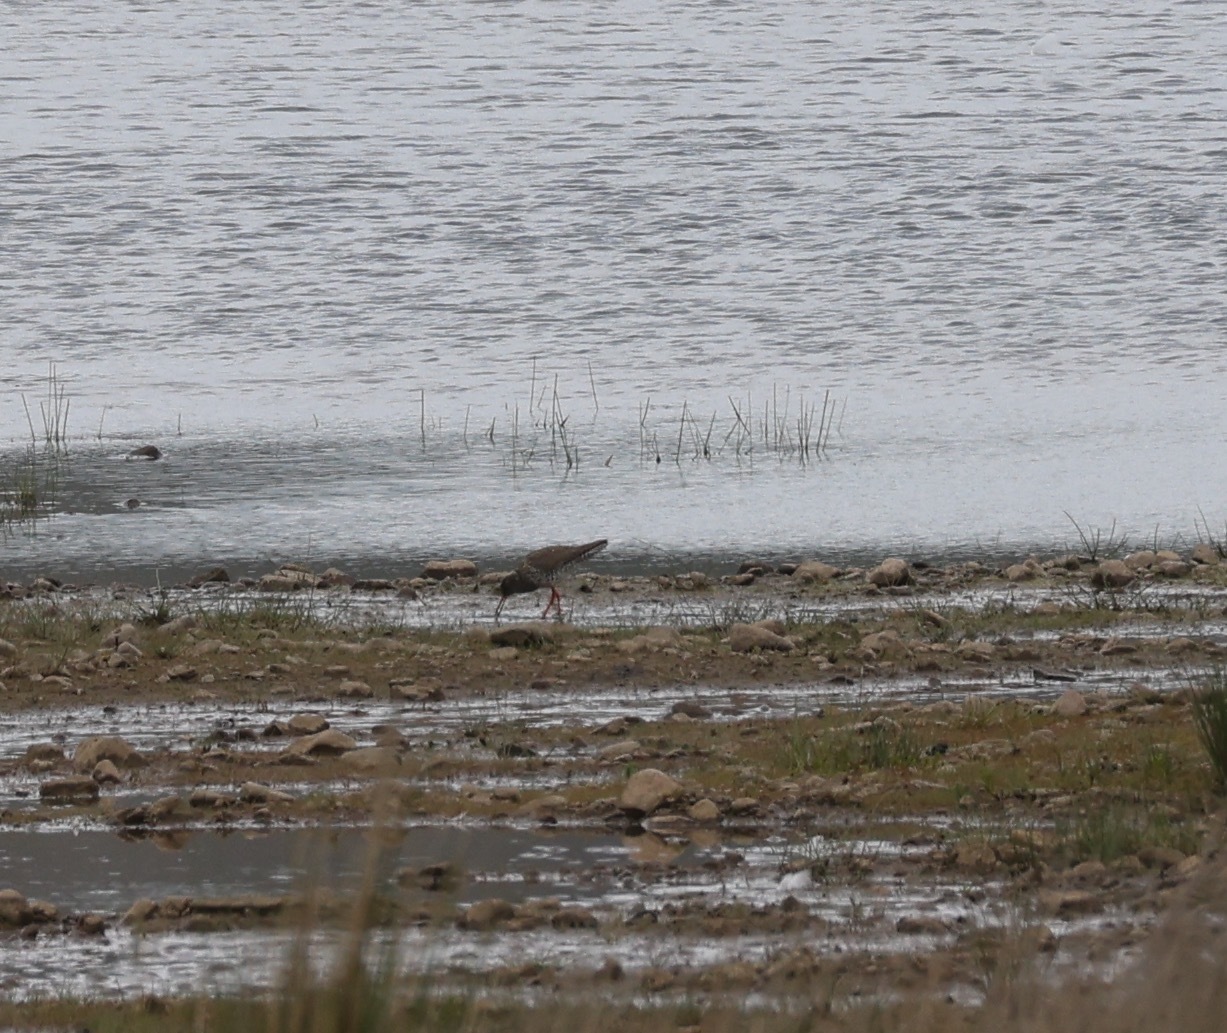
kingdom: Animalia
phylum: Chordata
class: Aves
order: Charadriiformes
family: Scolopacidae
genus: Tringa
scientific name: Tringa totanus
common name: Common redshank
